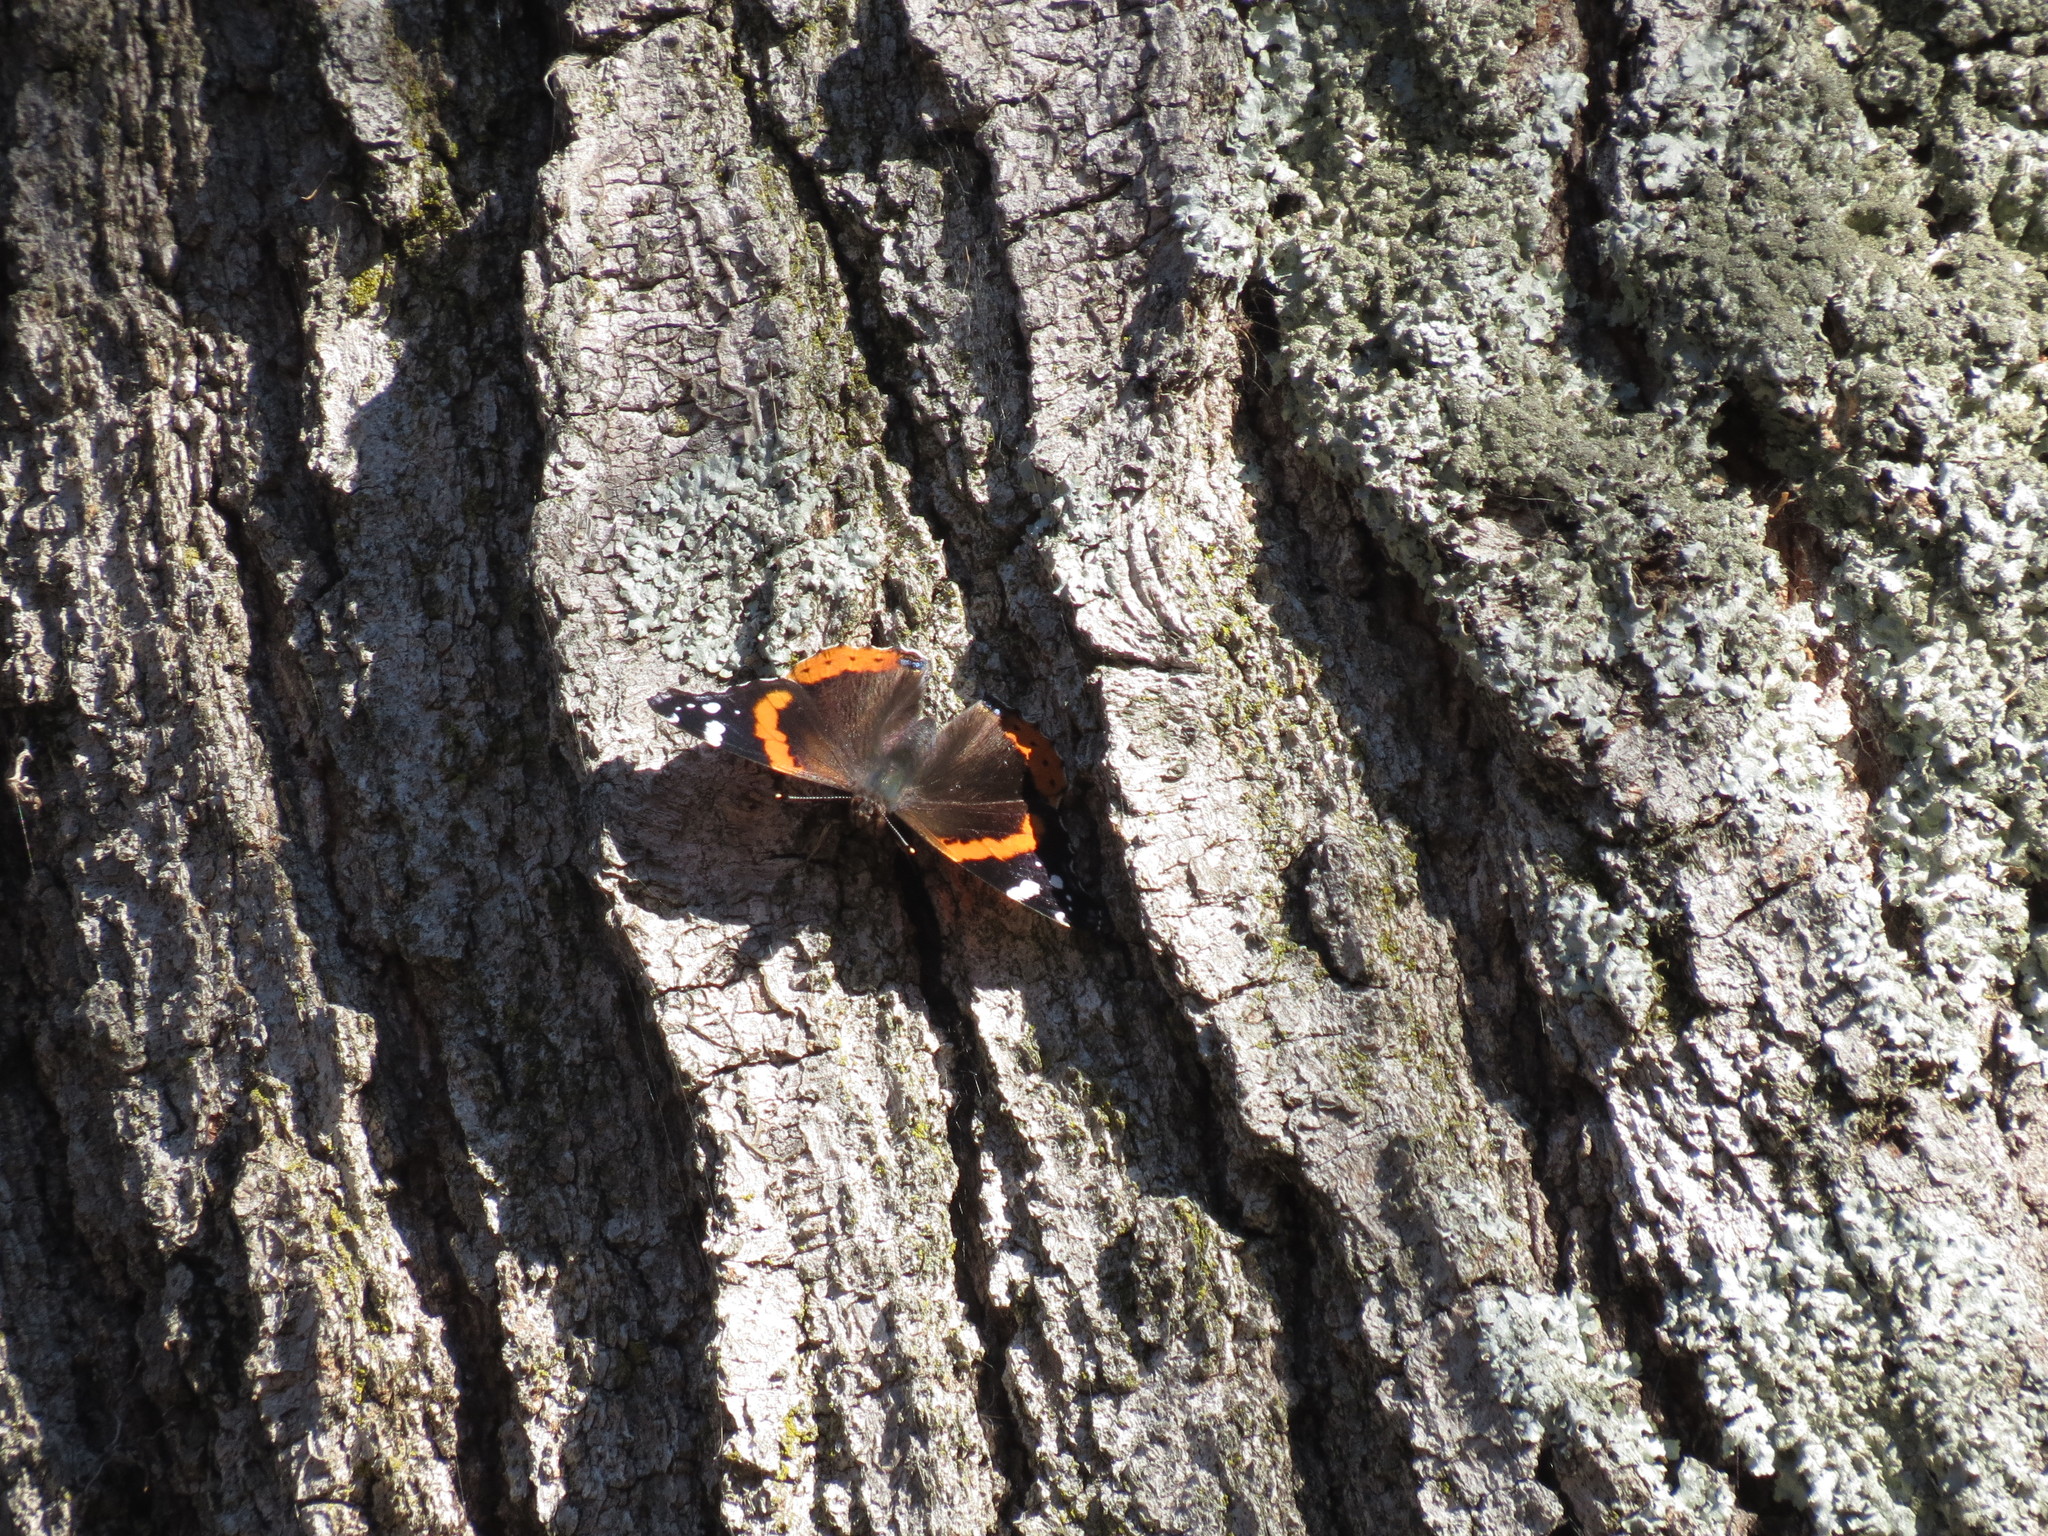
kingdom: Animalia
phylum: Arthropoda
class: Insecta
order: Lepidoptera
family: Nymphalidae
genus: Vanessa
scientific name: Vanessa atalanta
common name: Red admiral
